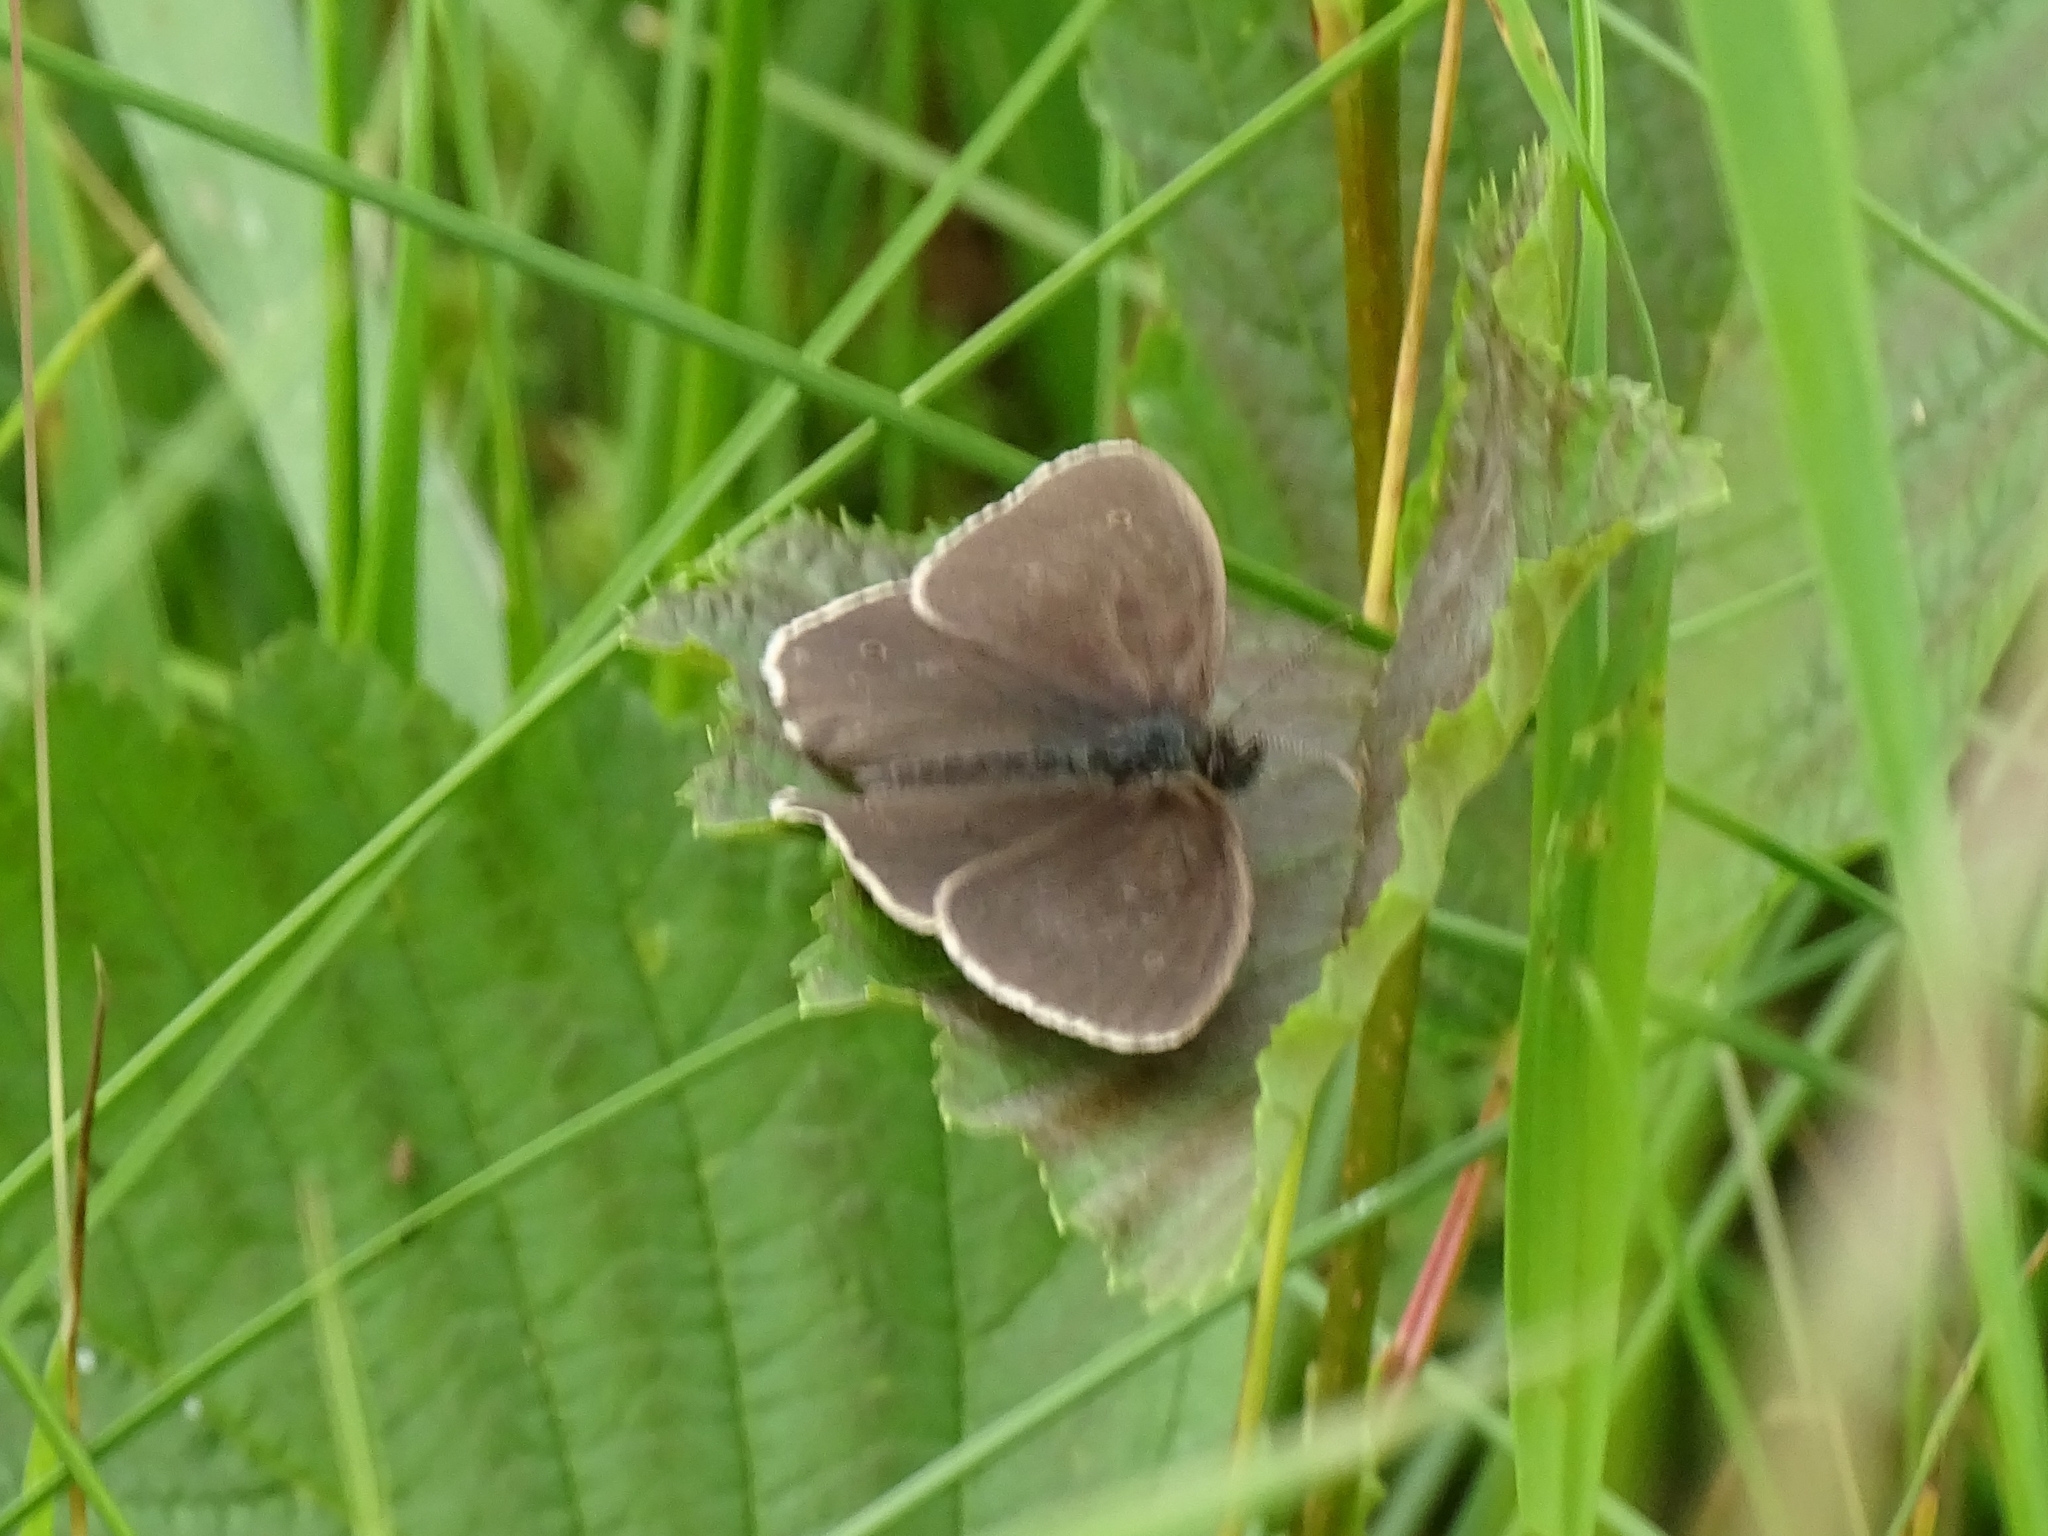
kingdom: Animalia
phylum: Arthropoda
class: Insecta
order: Lepidoptera
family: Nymphalidae
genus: Aphantopus
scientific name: Aphantopus hyperantus
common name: Ringlet
